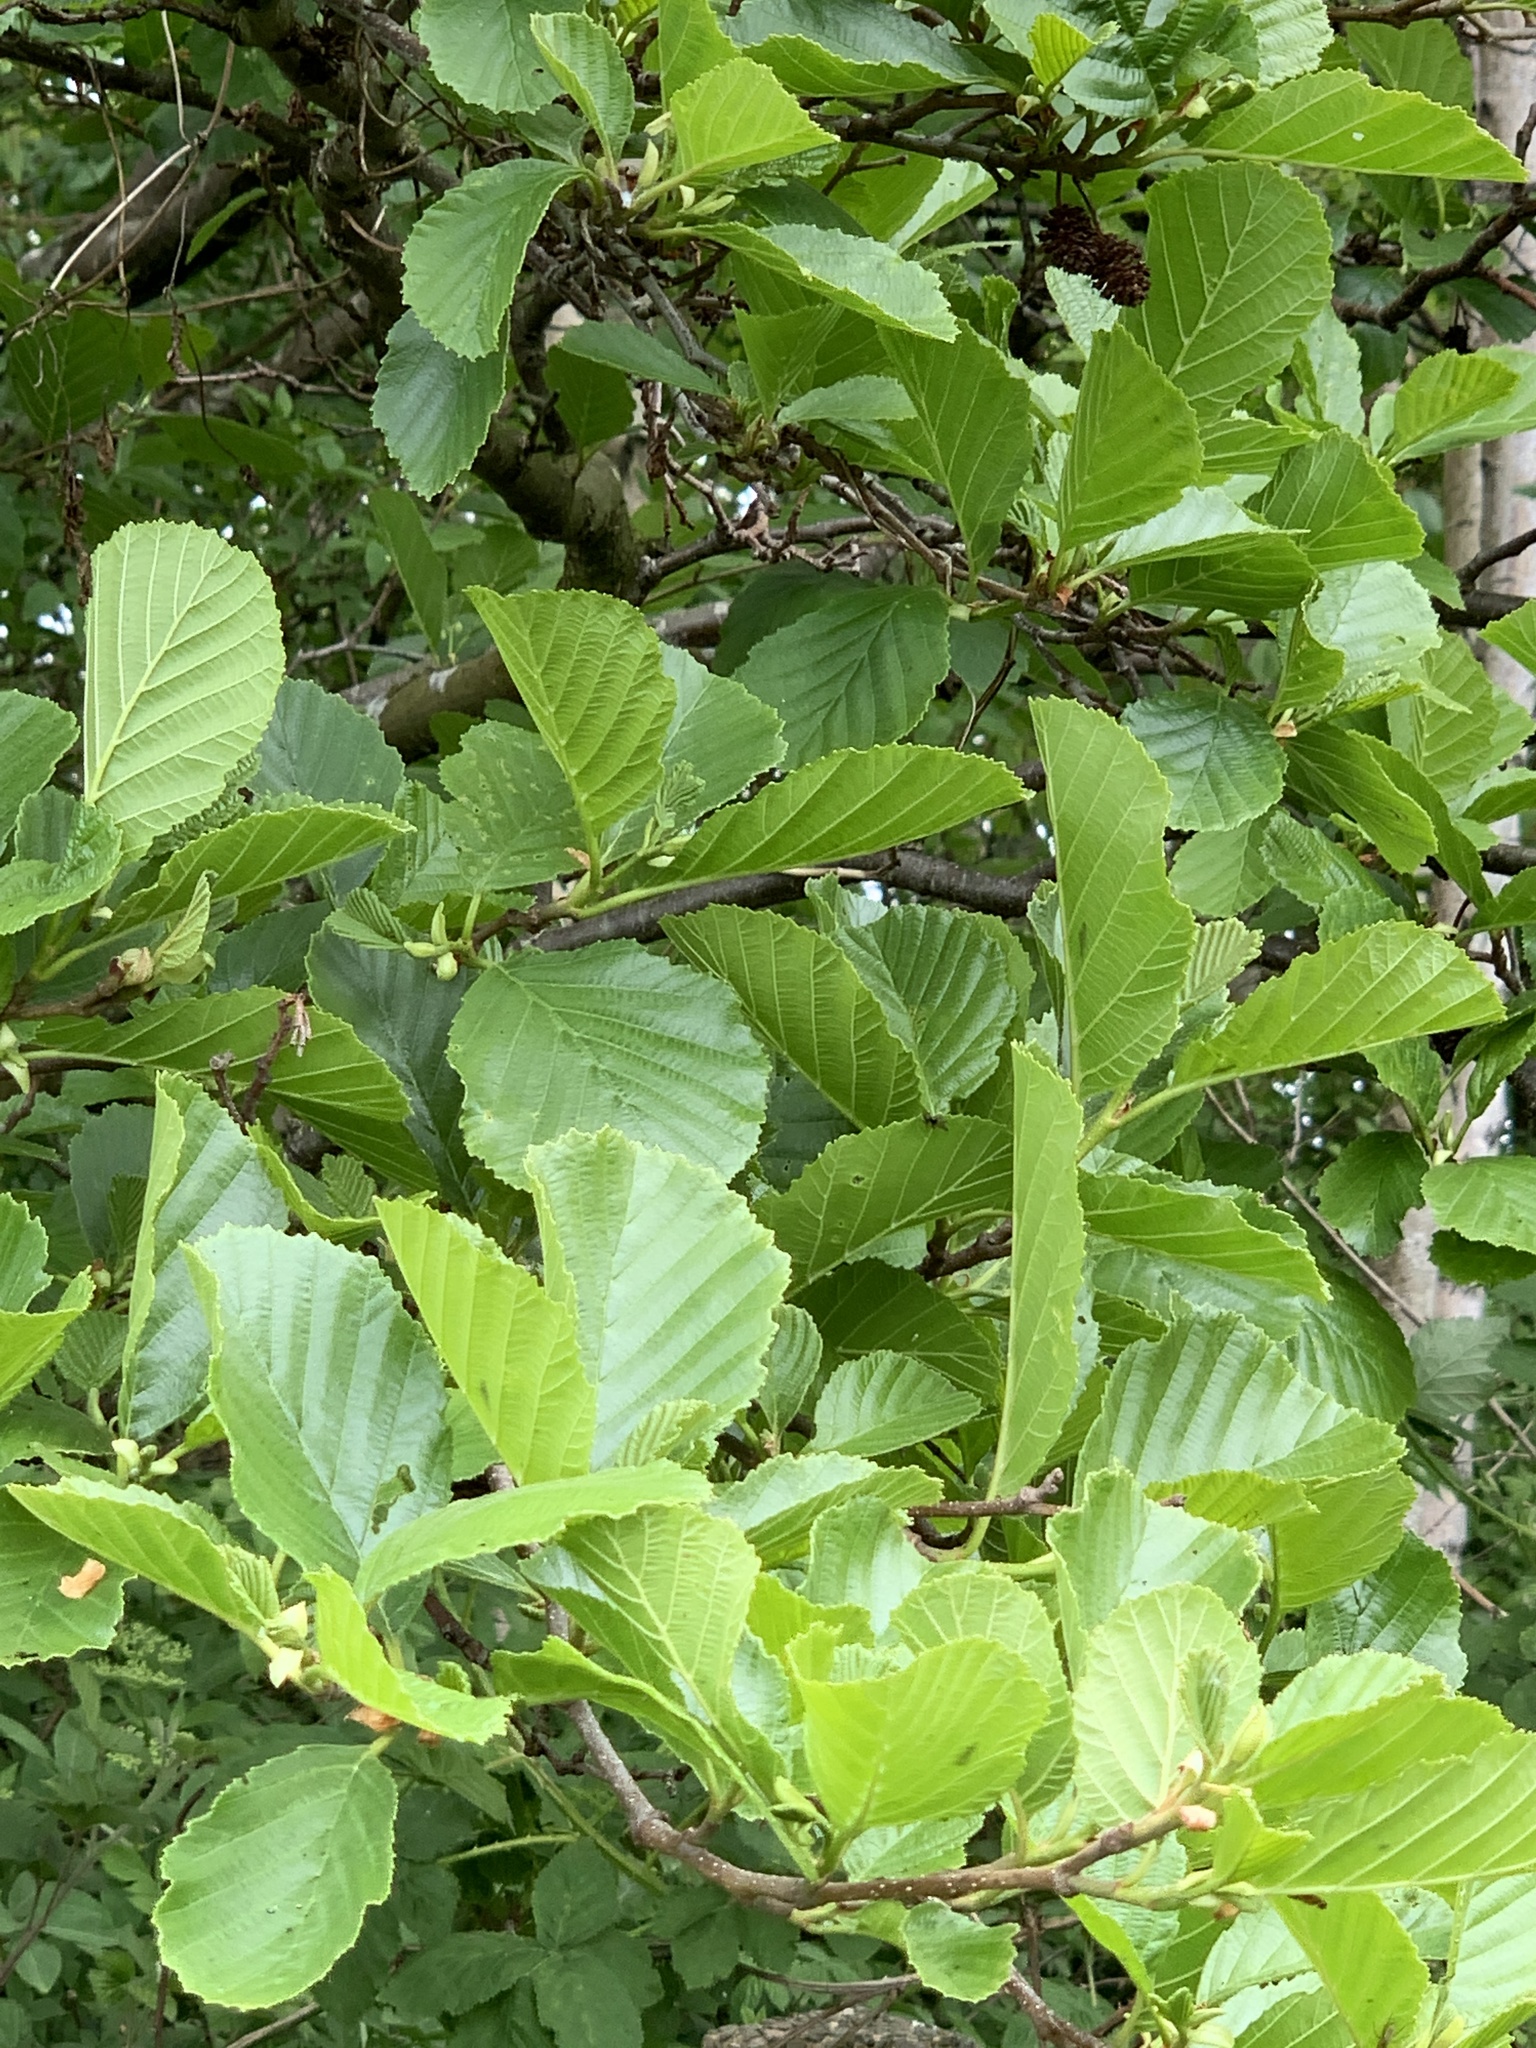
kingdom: Plantae
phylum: Tracheophyta
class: Magnoliopsida
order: Fagales
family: Betulaceae
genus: Alnus
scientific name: Alnus glutinosa
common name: Black alder
